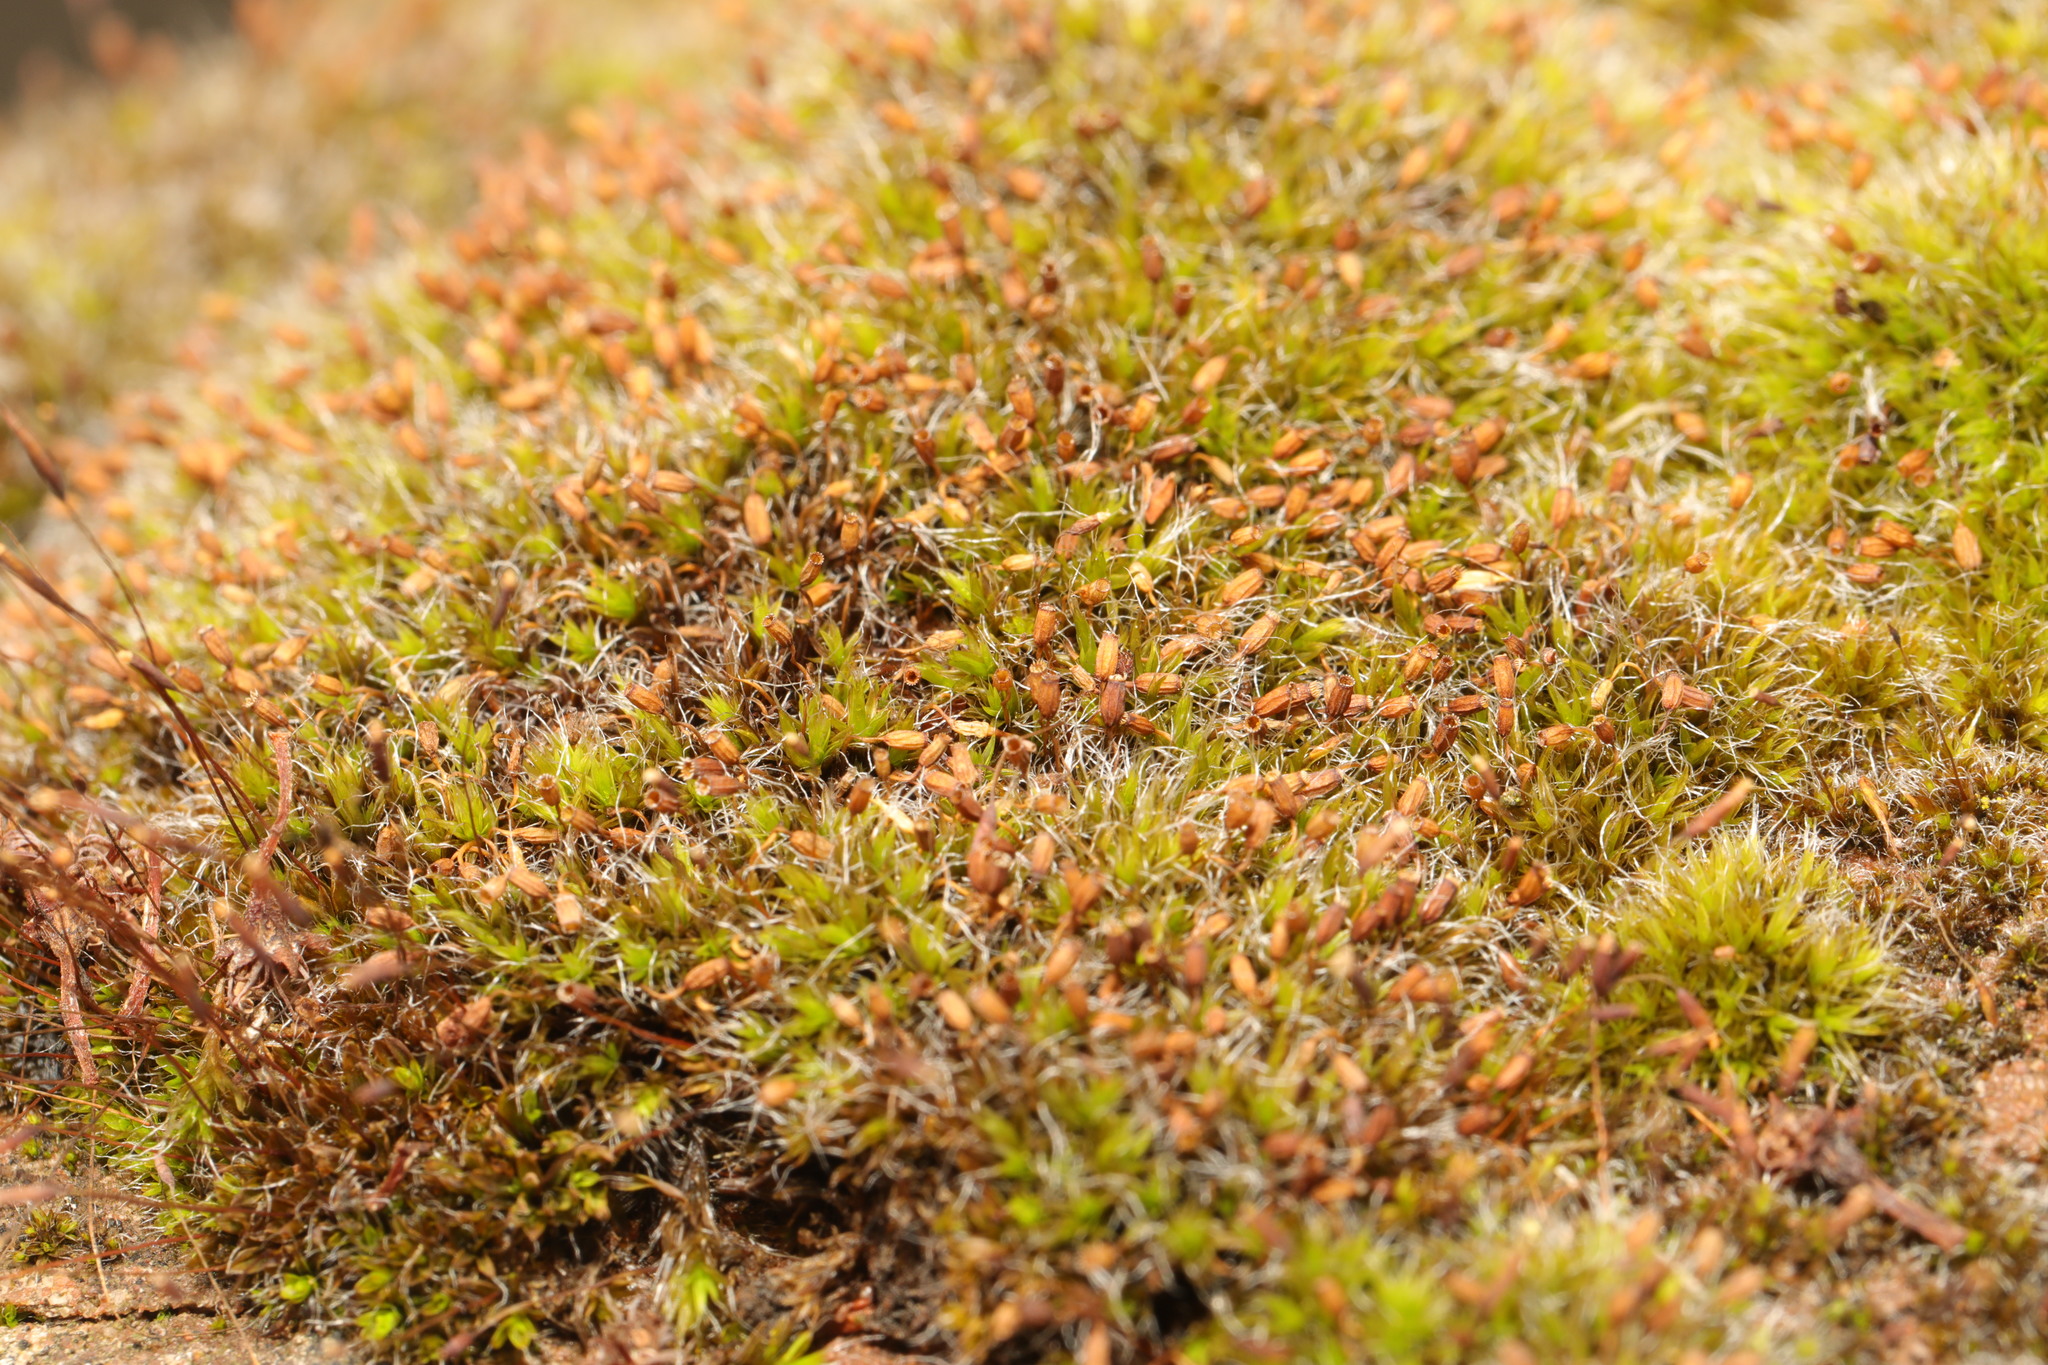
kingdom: Plantae
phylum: Bryophyta
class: Bryopsida
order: Grimmiales
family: Grimmiaceae
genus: Grimmia
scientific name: Grimmia pulvinata
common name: Grey-cushioned grimmia
